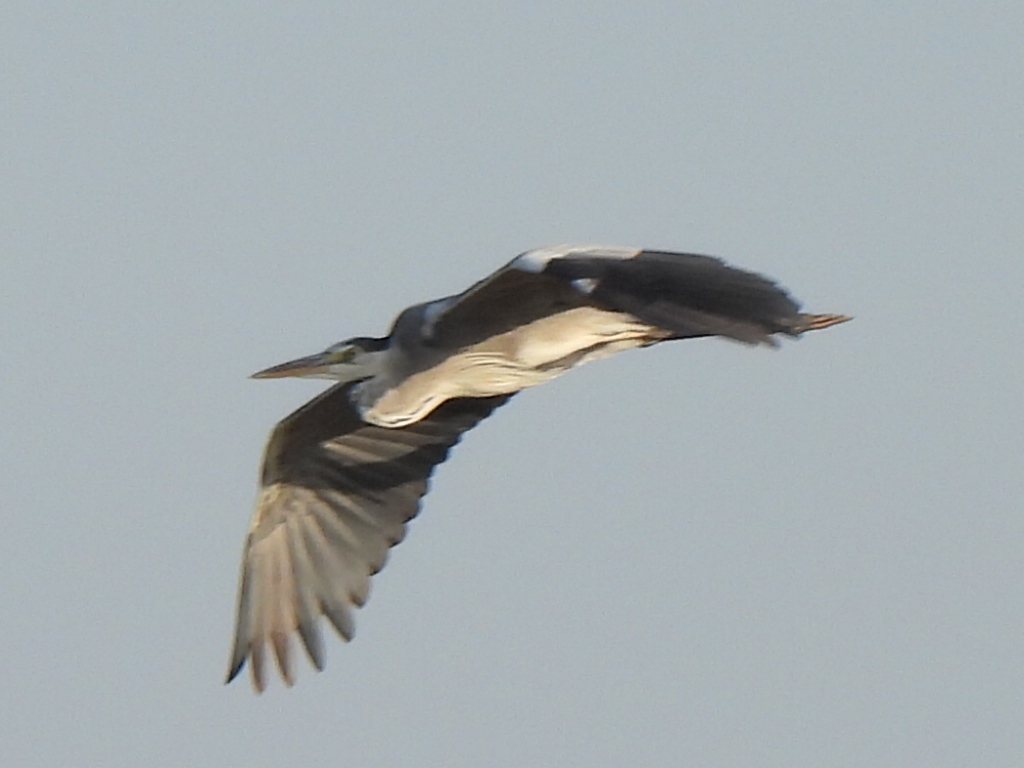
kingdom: Animalia
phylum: Chordata
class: Aves
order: Pelecaniformes
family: Ardeidae
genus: Ardea
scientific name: Ardea cinerea
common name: Grey heron
